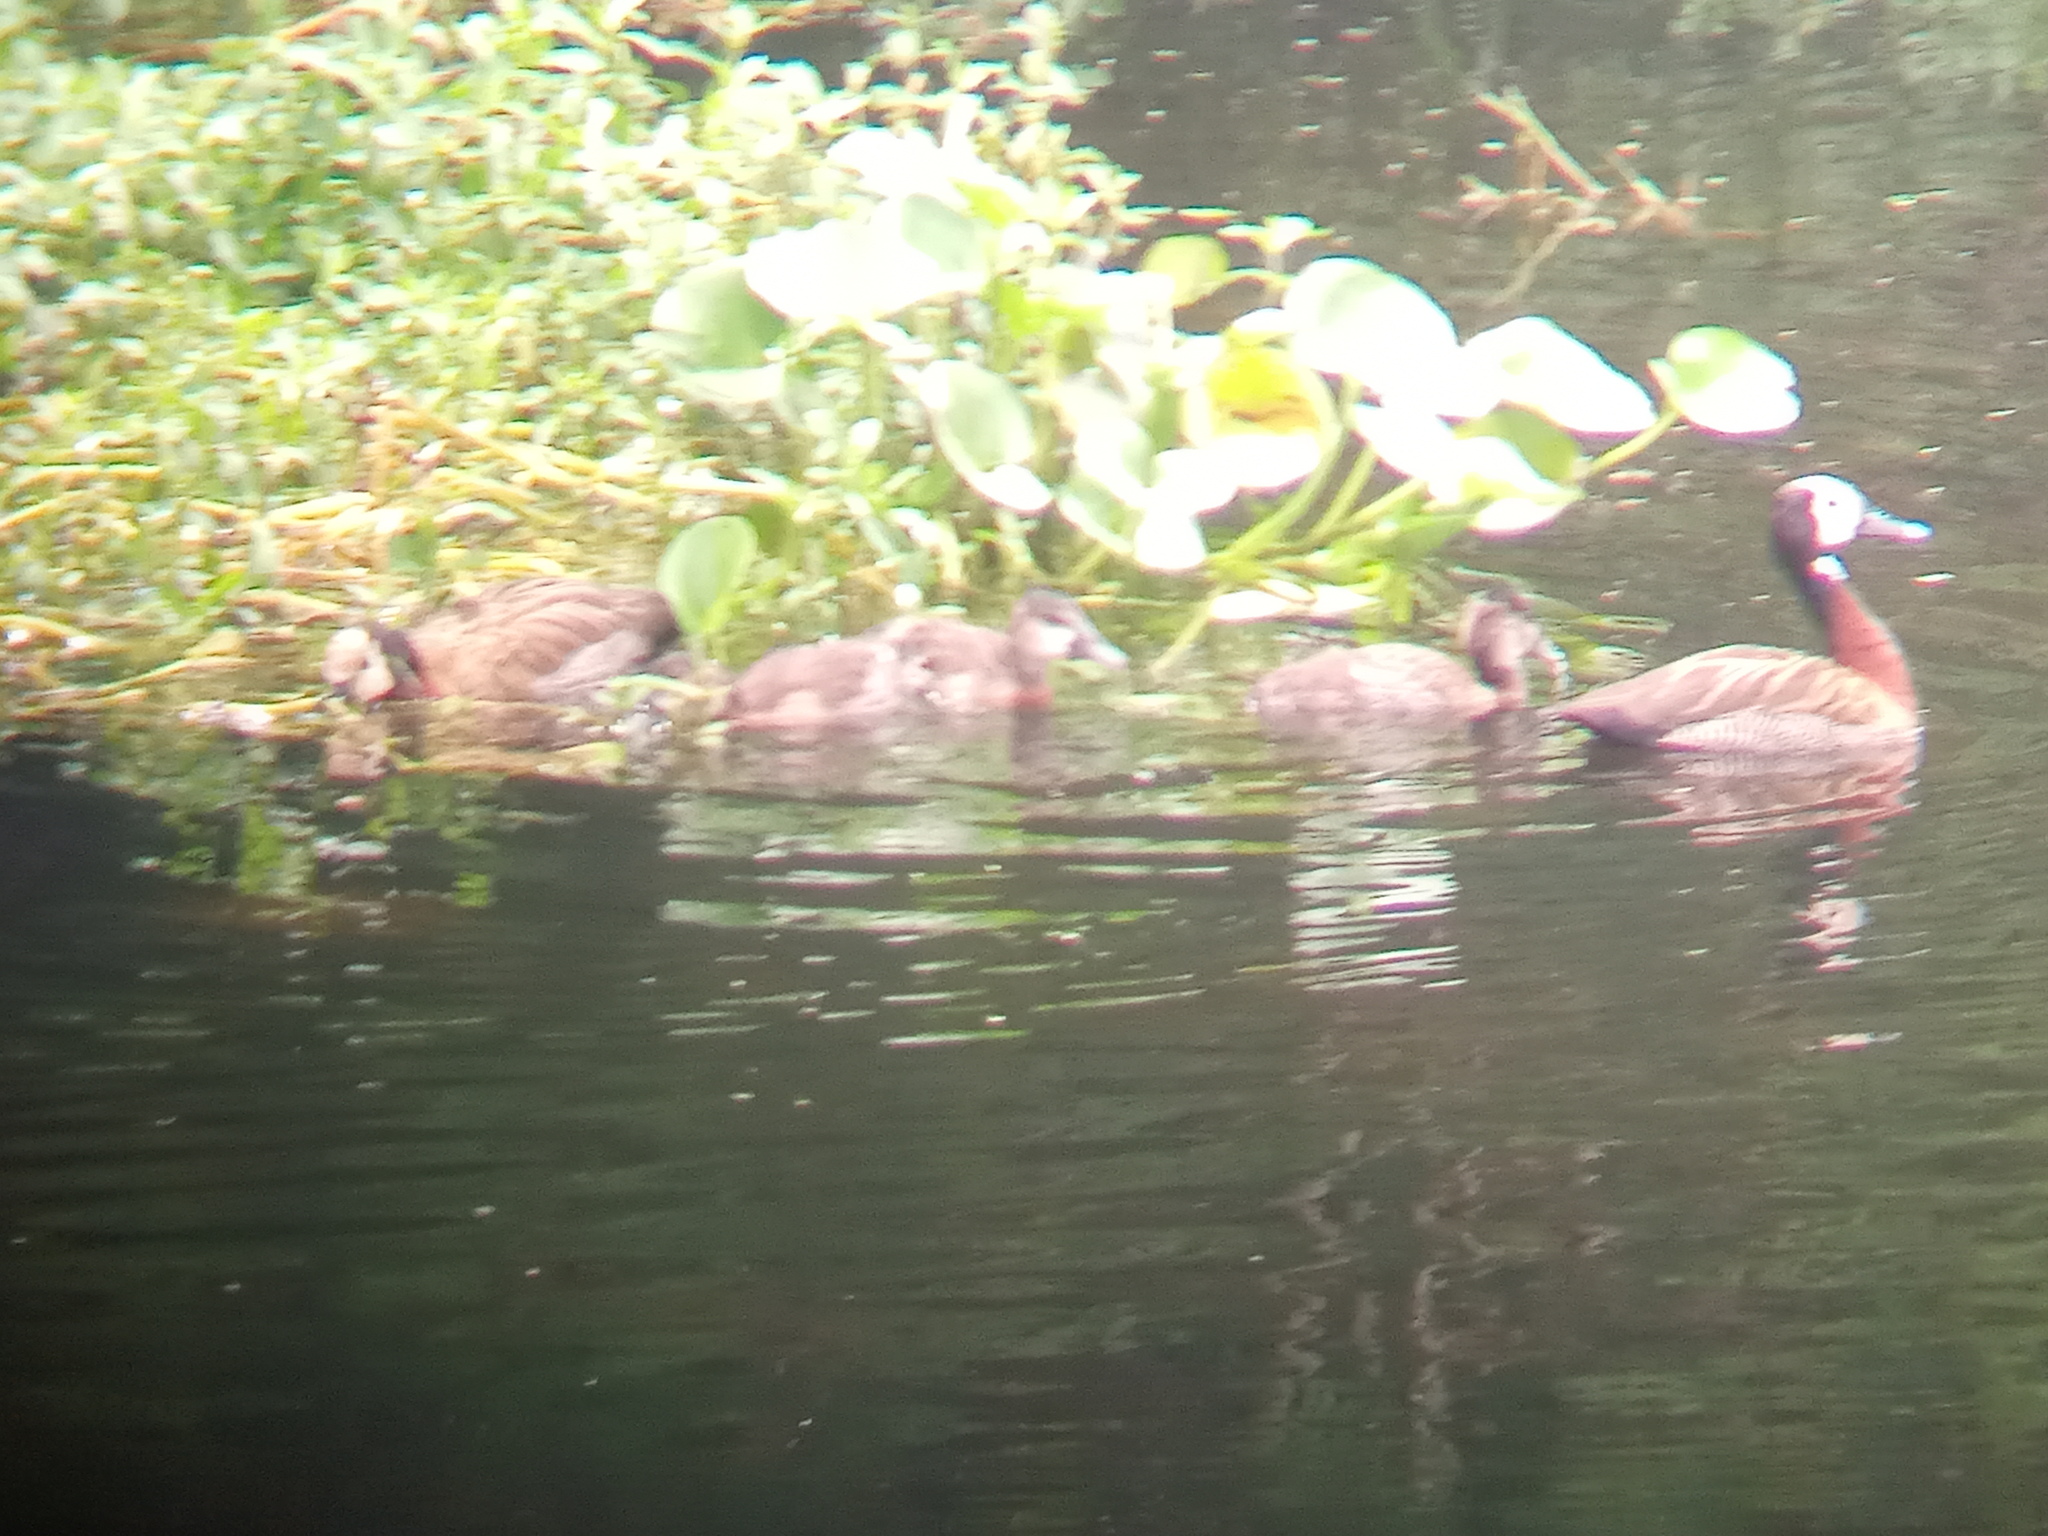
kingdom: Animalia
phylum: Chordata
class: Aves
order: Anseriformes
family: Anatidae
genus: Dendrocygna
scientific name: Dendrocygna viduata
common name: White-faced whistling duck
